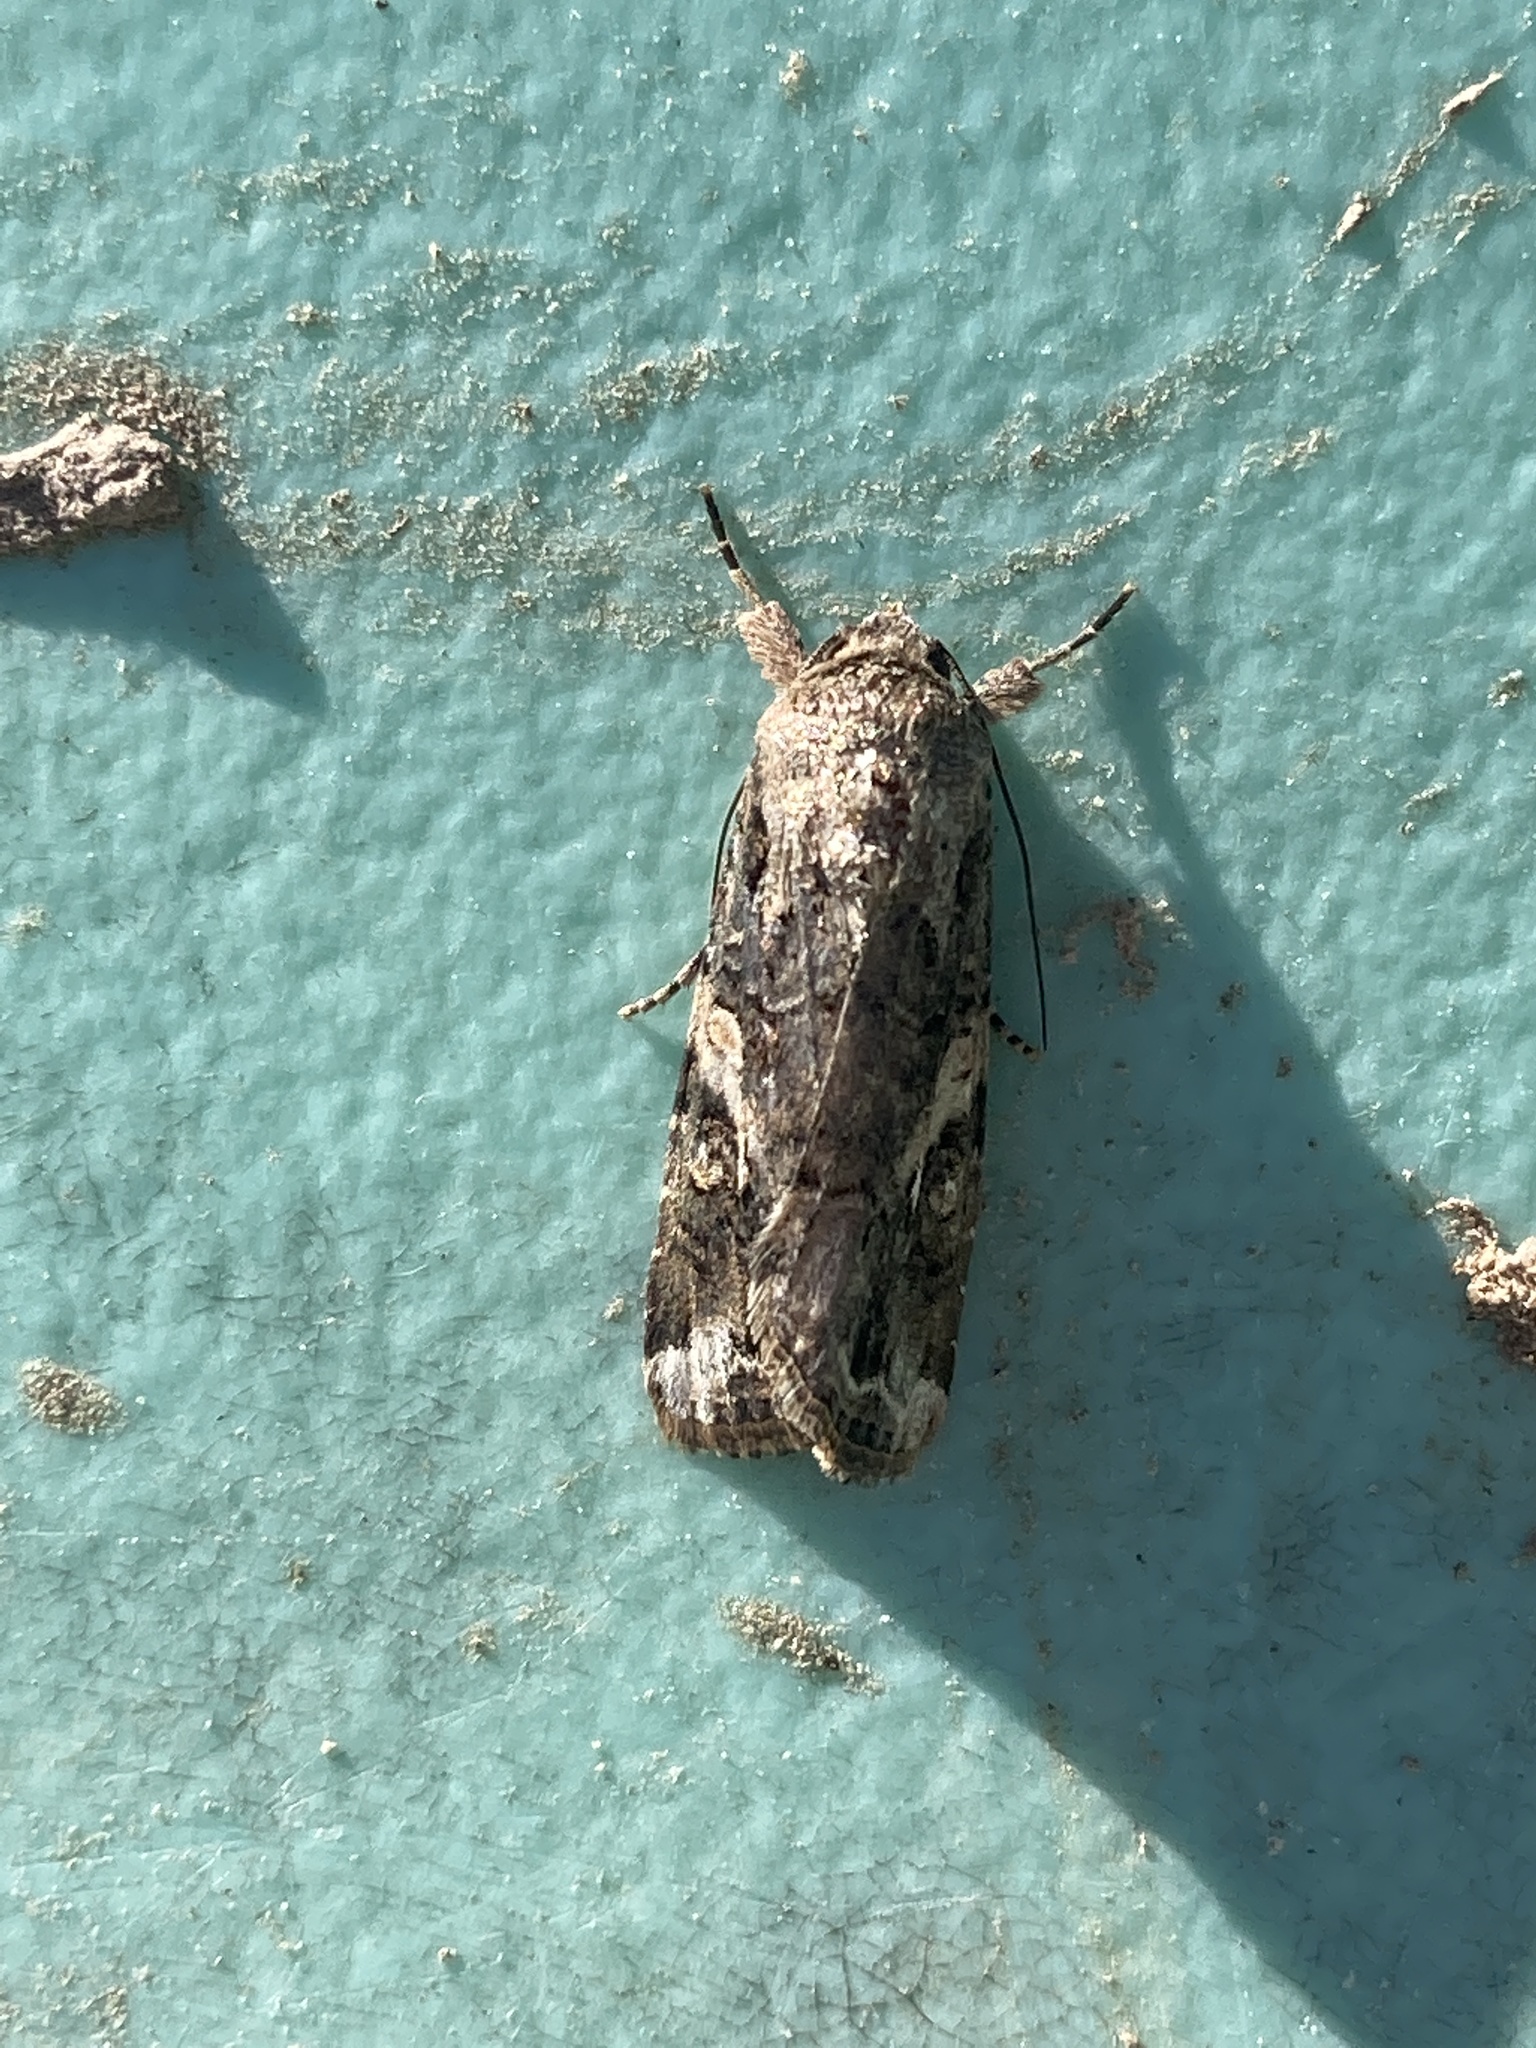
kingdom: Animalia
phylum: Arthropoda
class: Insecta
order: Lepidoptera
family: Noctuidae
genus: Spodoptera
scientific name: Spodoptera frugiperda
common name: Fall armyworm
